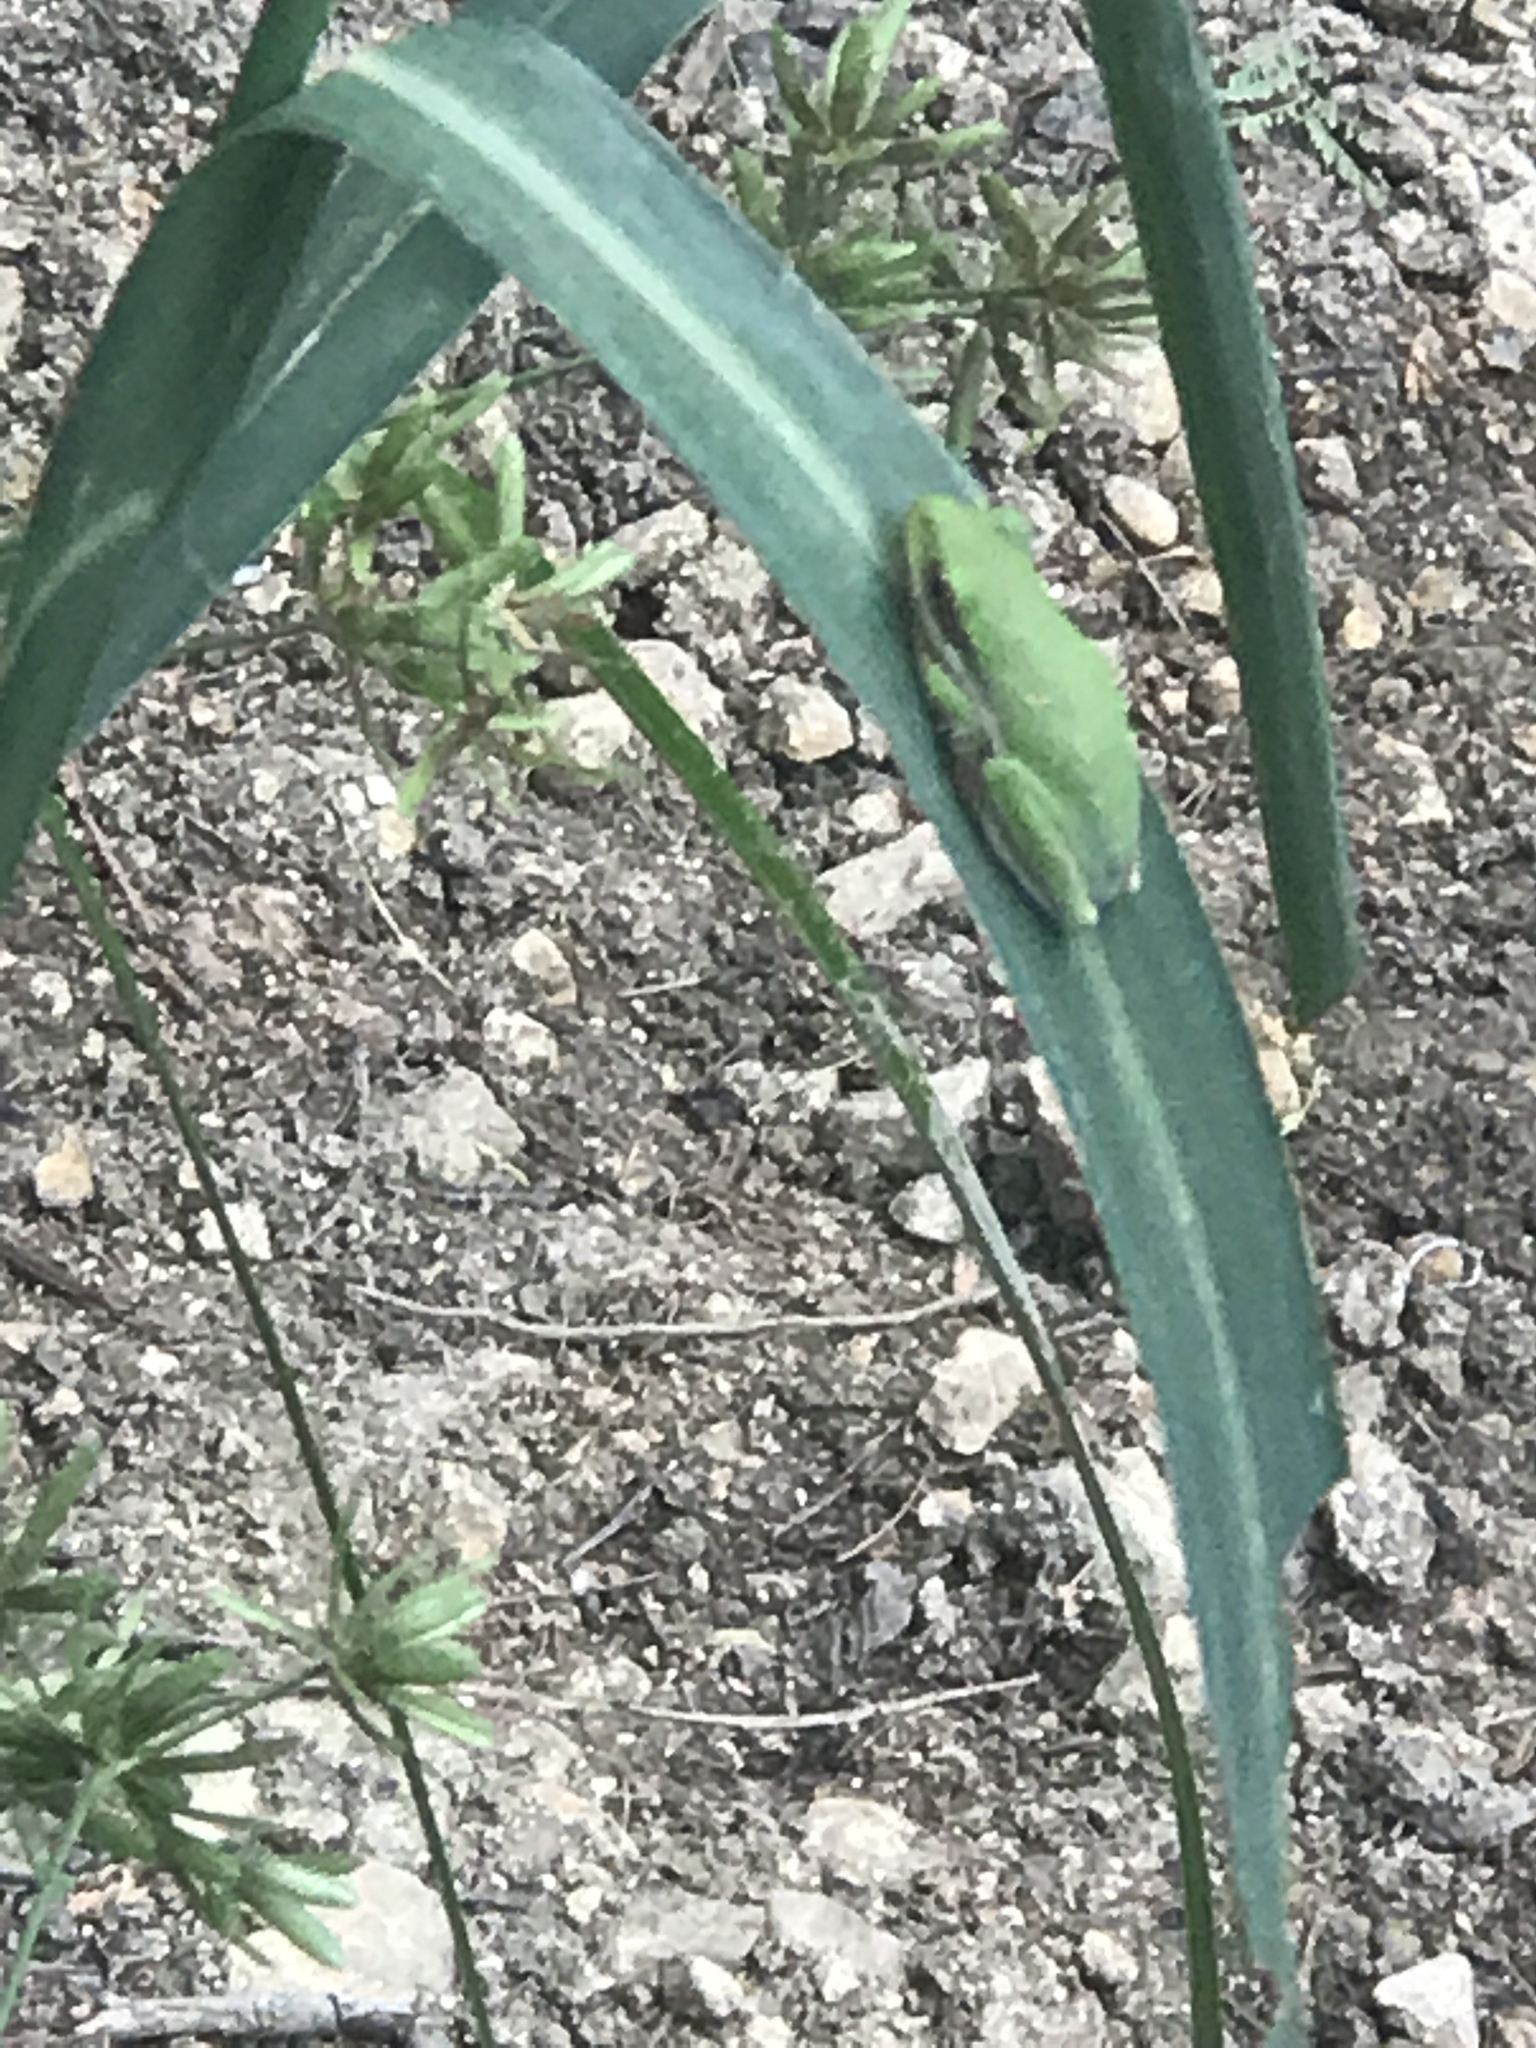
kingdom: Animalia
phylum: Chordata
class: Amphibia
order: Anura
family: Hylidae
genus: Dryophytes
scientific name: Dryophytes cinereus
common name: Green treefrog
